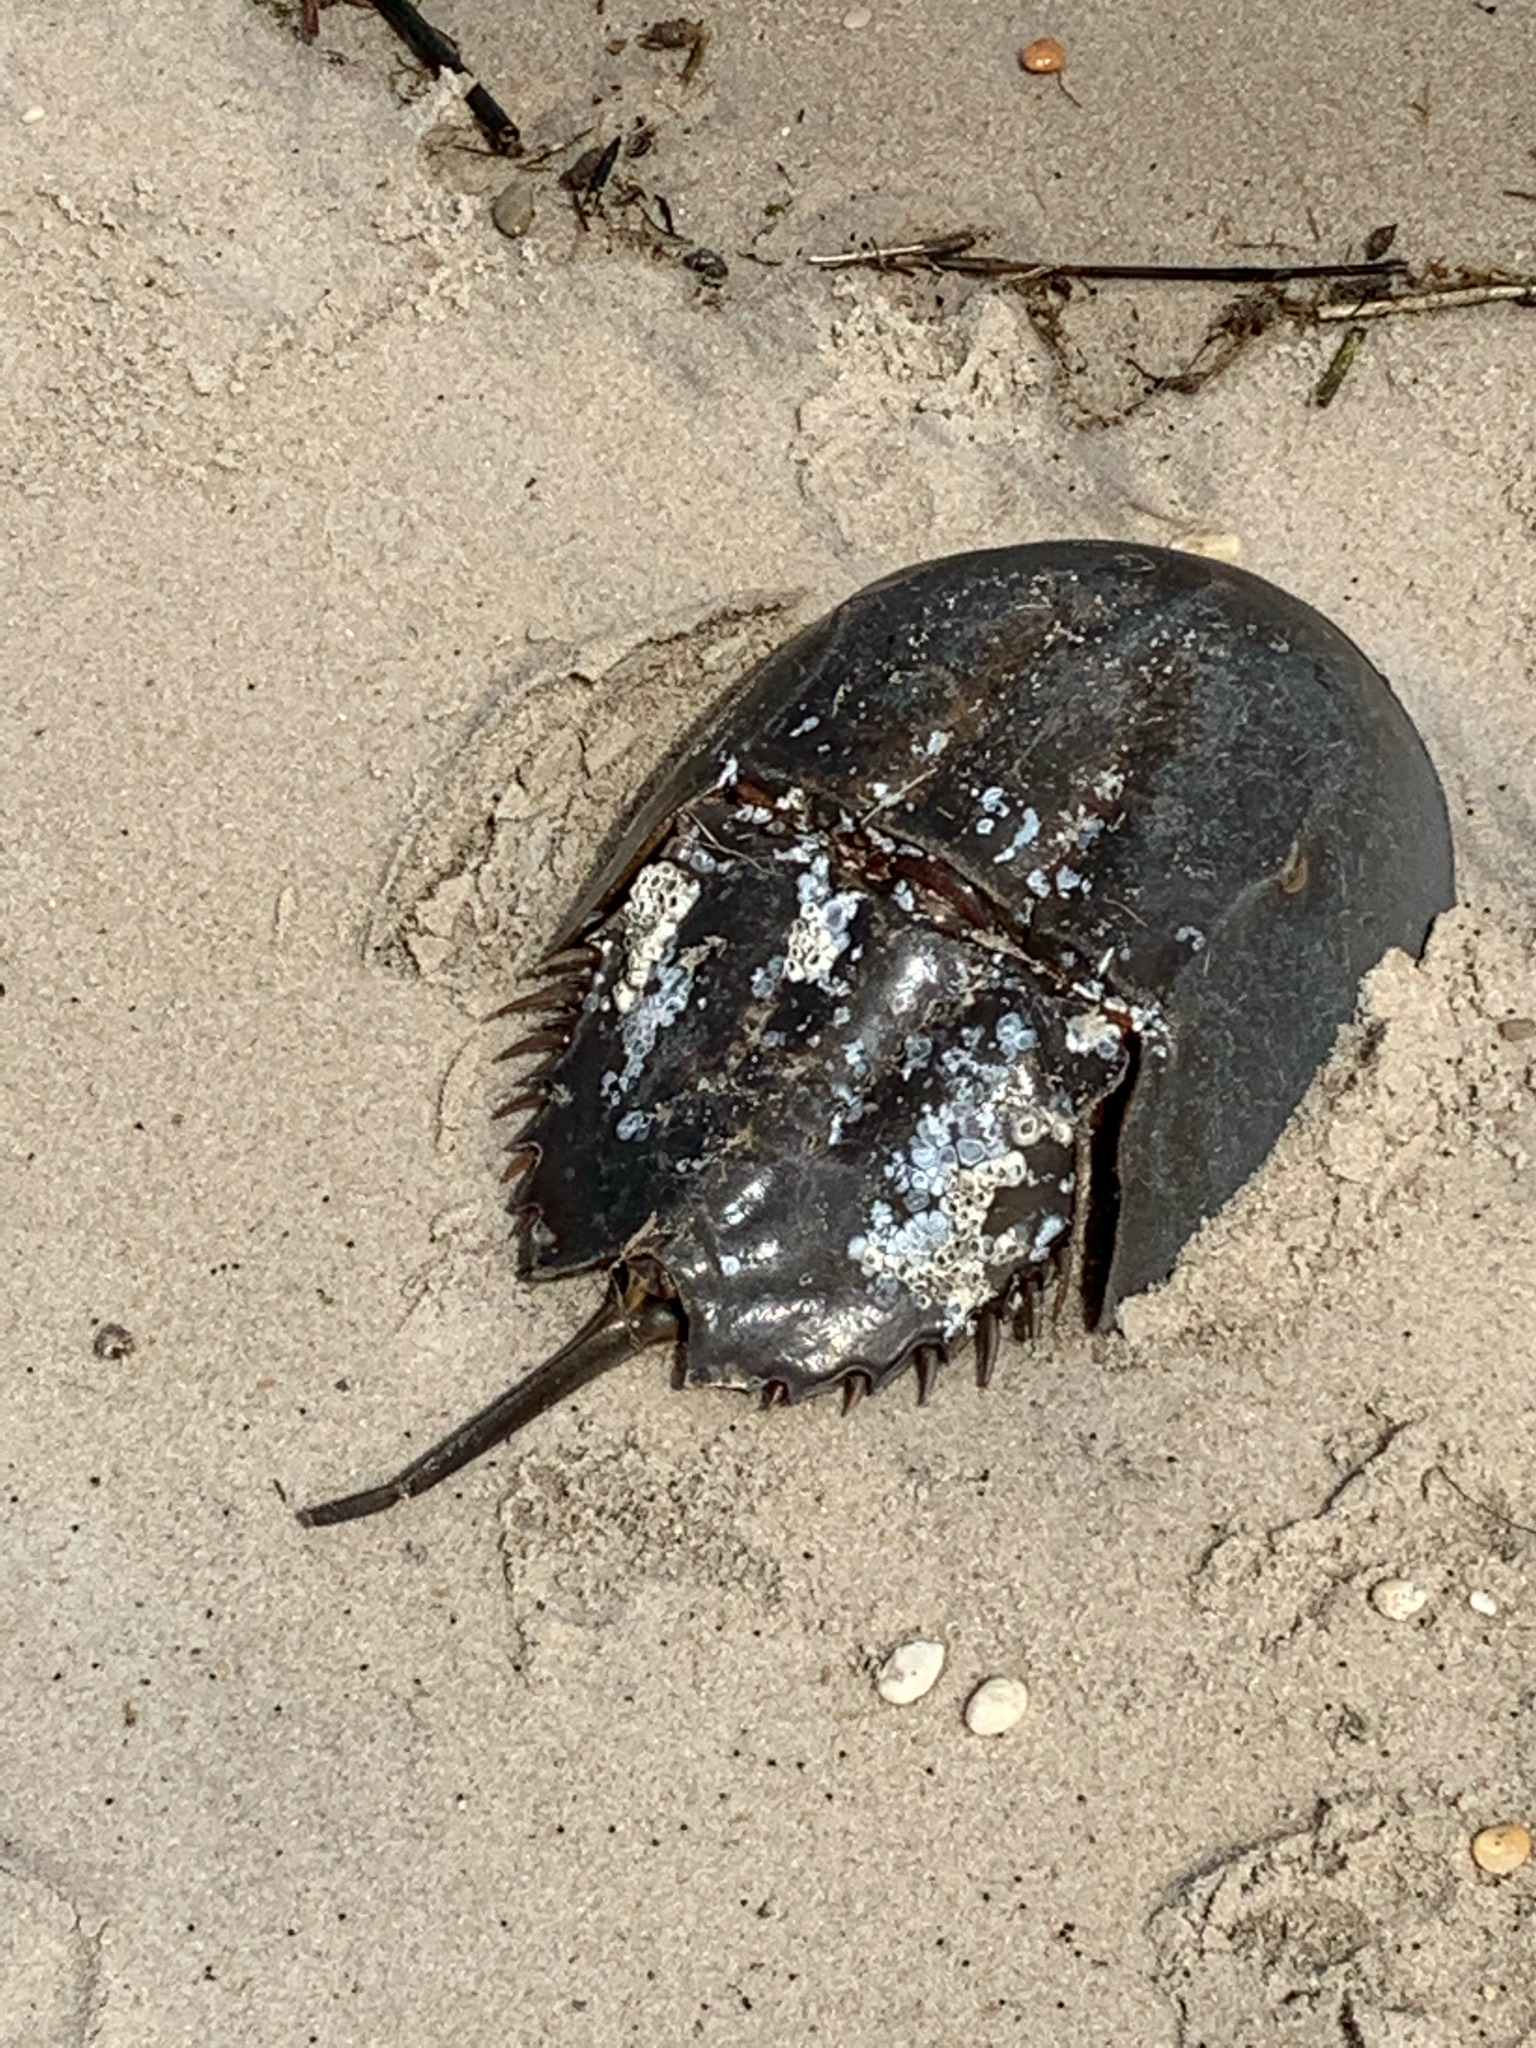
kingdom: Animalia
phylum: Arthropoda
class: Merostomata
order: Xiphosurida
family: Limulidae
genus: Limulus
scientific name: Limulus polyphemus
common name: Horseshoe crab
